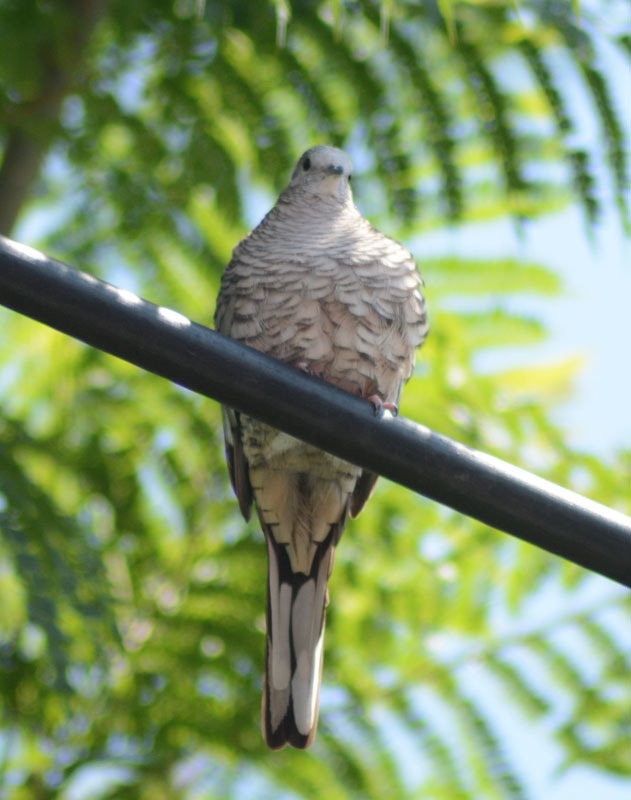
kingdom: Animalia
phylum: Chordata
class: Aves
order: Columbiformes
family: Columbidae
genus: Columbina
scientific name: Columbina inca
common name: Inca dove
